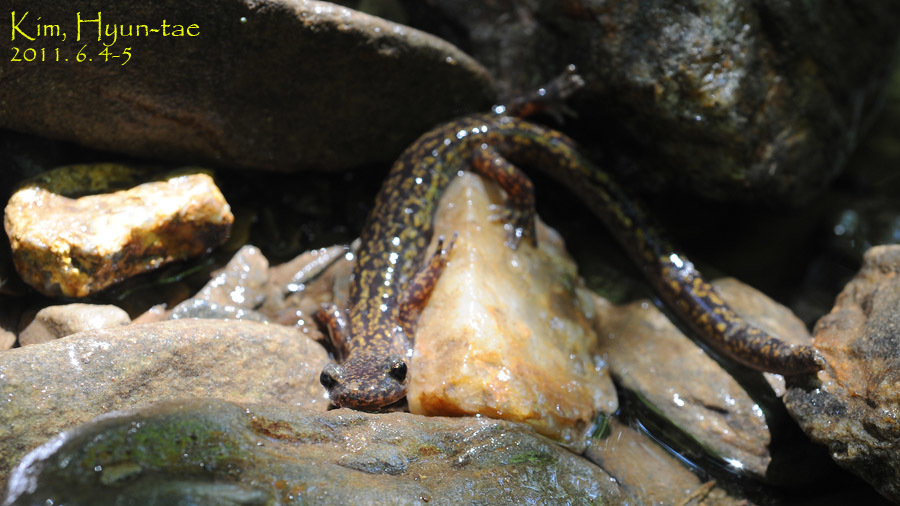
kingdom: Animalia
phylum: Chordata
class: Amphibia
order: Caudata
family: Hynobiidae
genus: Onychodactylus
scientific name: Onychodactylus koreanus
